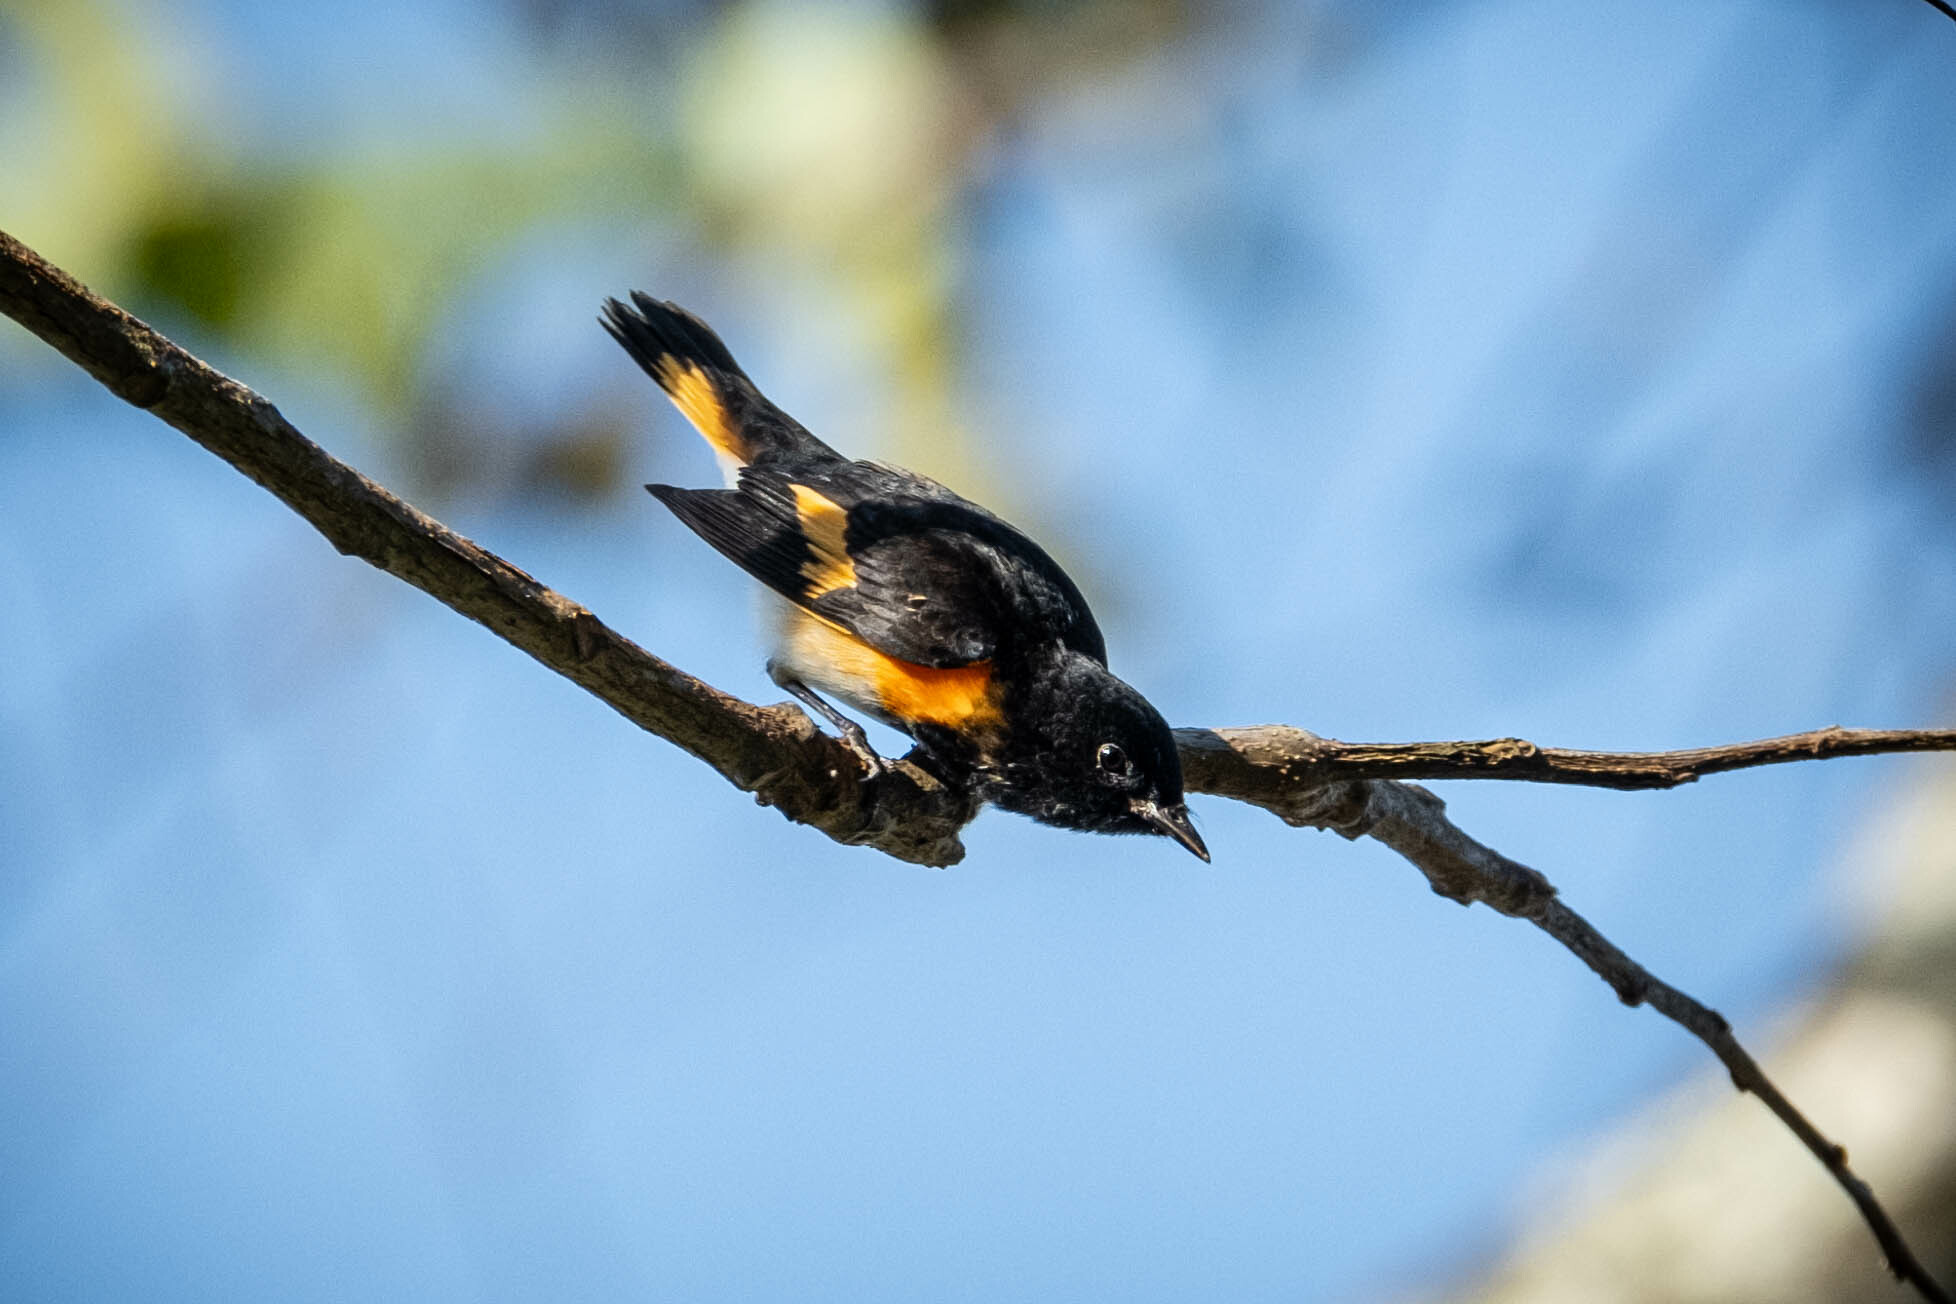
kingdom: Animalia
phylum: Chordata
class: Aves
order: Passeriformes
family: Parulidae
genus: Setophaga
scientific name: Setophaga ruticilla
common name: American redstart
